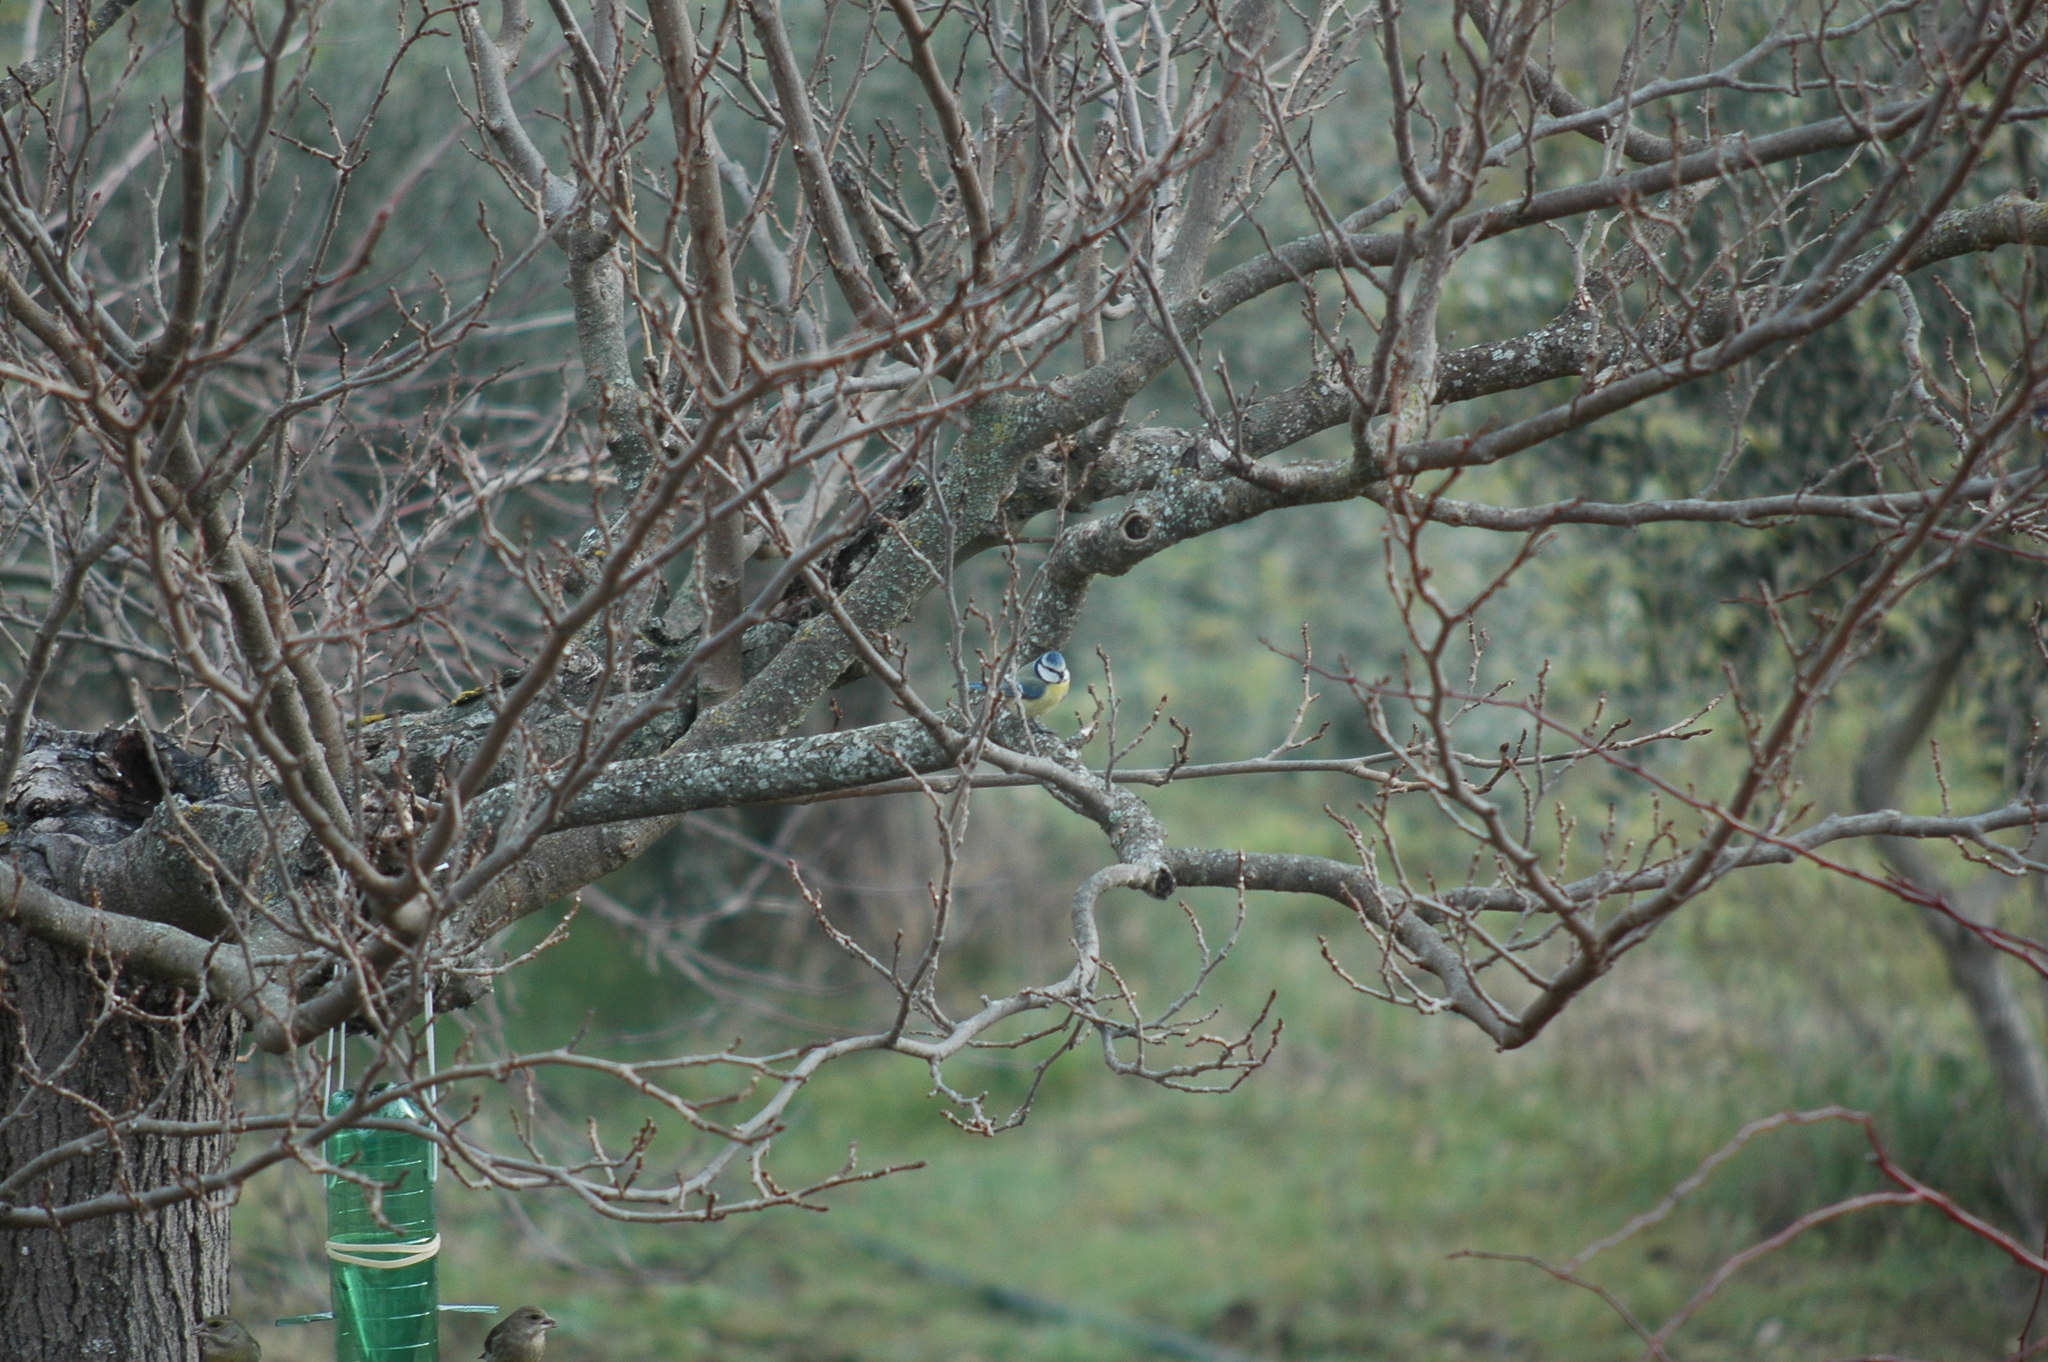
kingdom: Animalia
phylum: Chordata
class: Aves
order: Passeriformes
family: Paridae
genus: Cyanistes
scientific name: Cyanistes caeruleus
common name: Eurasian blue tit
